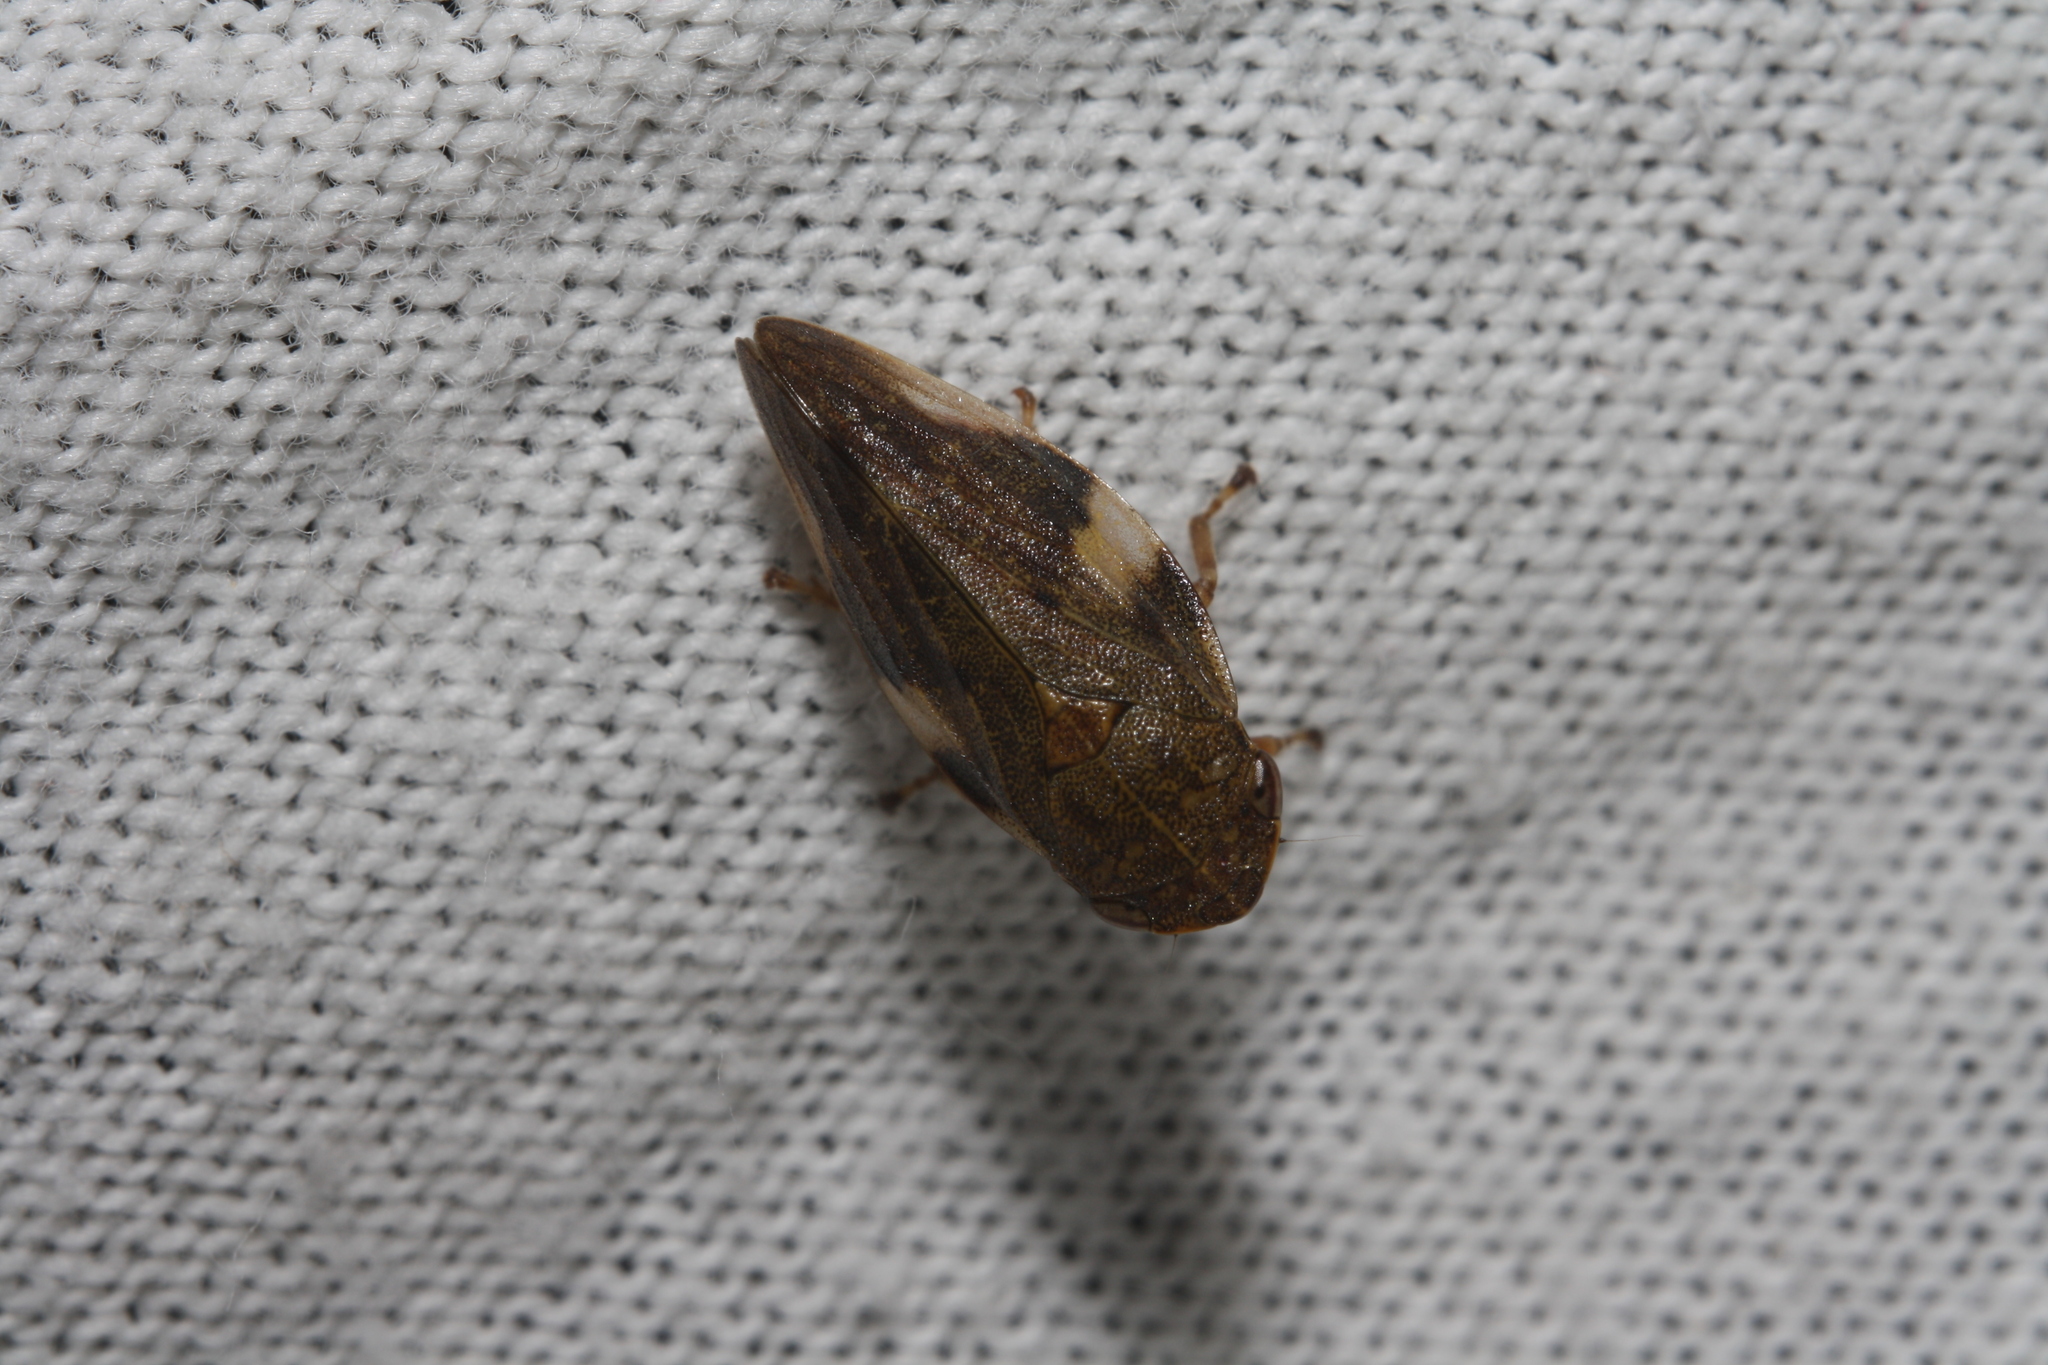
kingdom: Animalia
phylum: Arthropoda
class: Insecta
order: Hemiptera
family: Aphrophoridae
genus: Aphrophora
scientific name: Aphrophora alni
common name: European alder spittlebug
